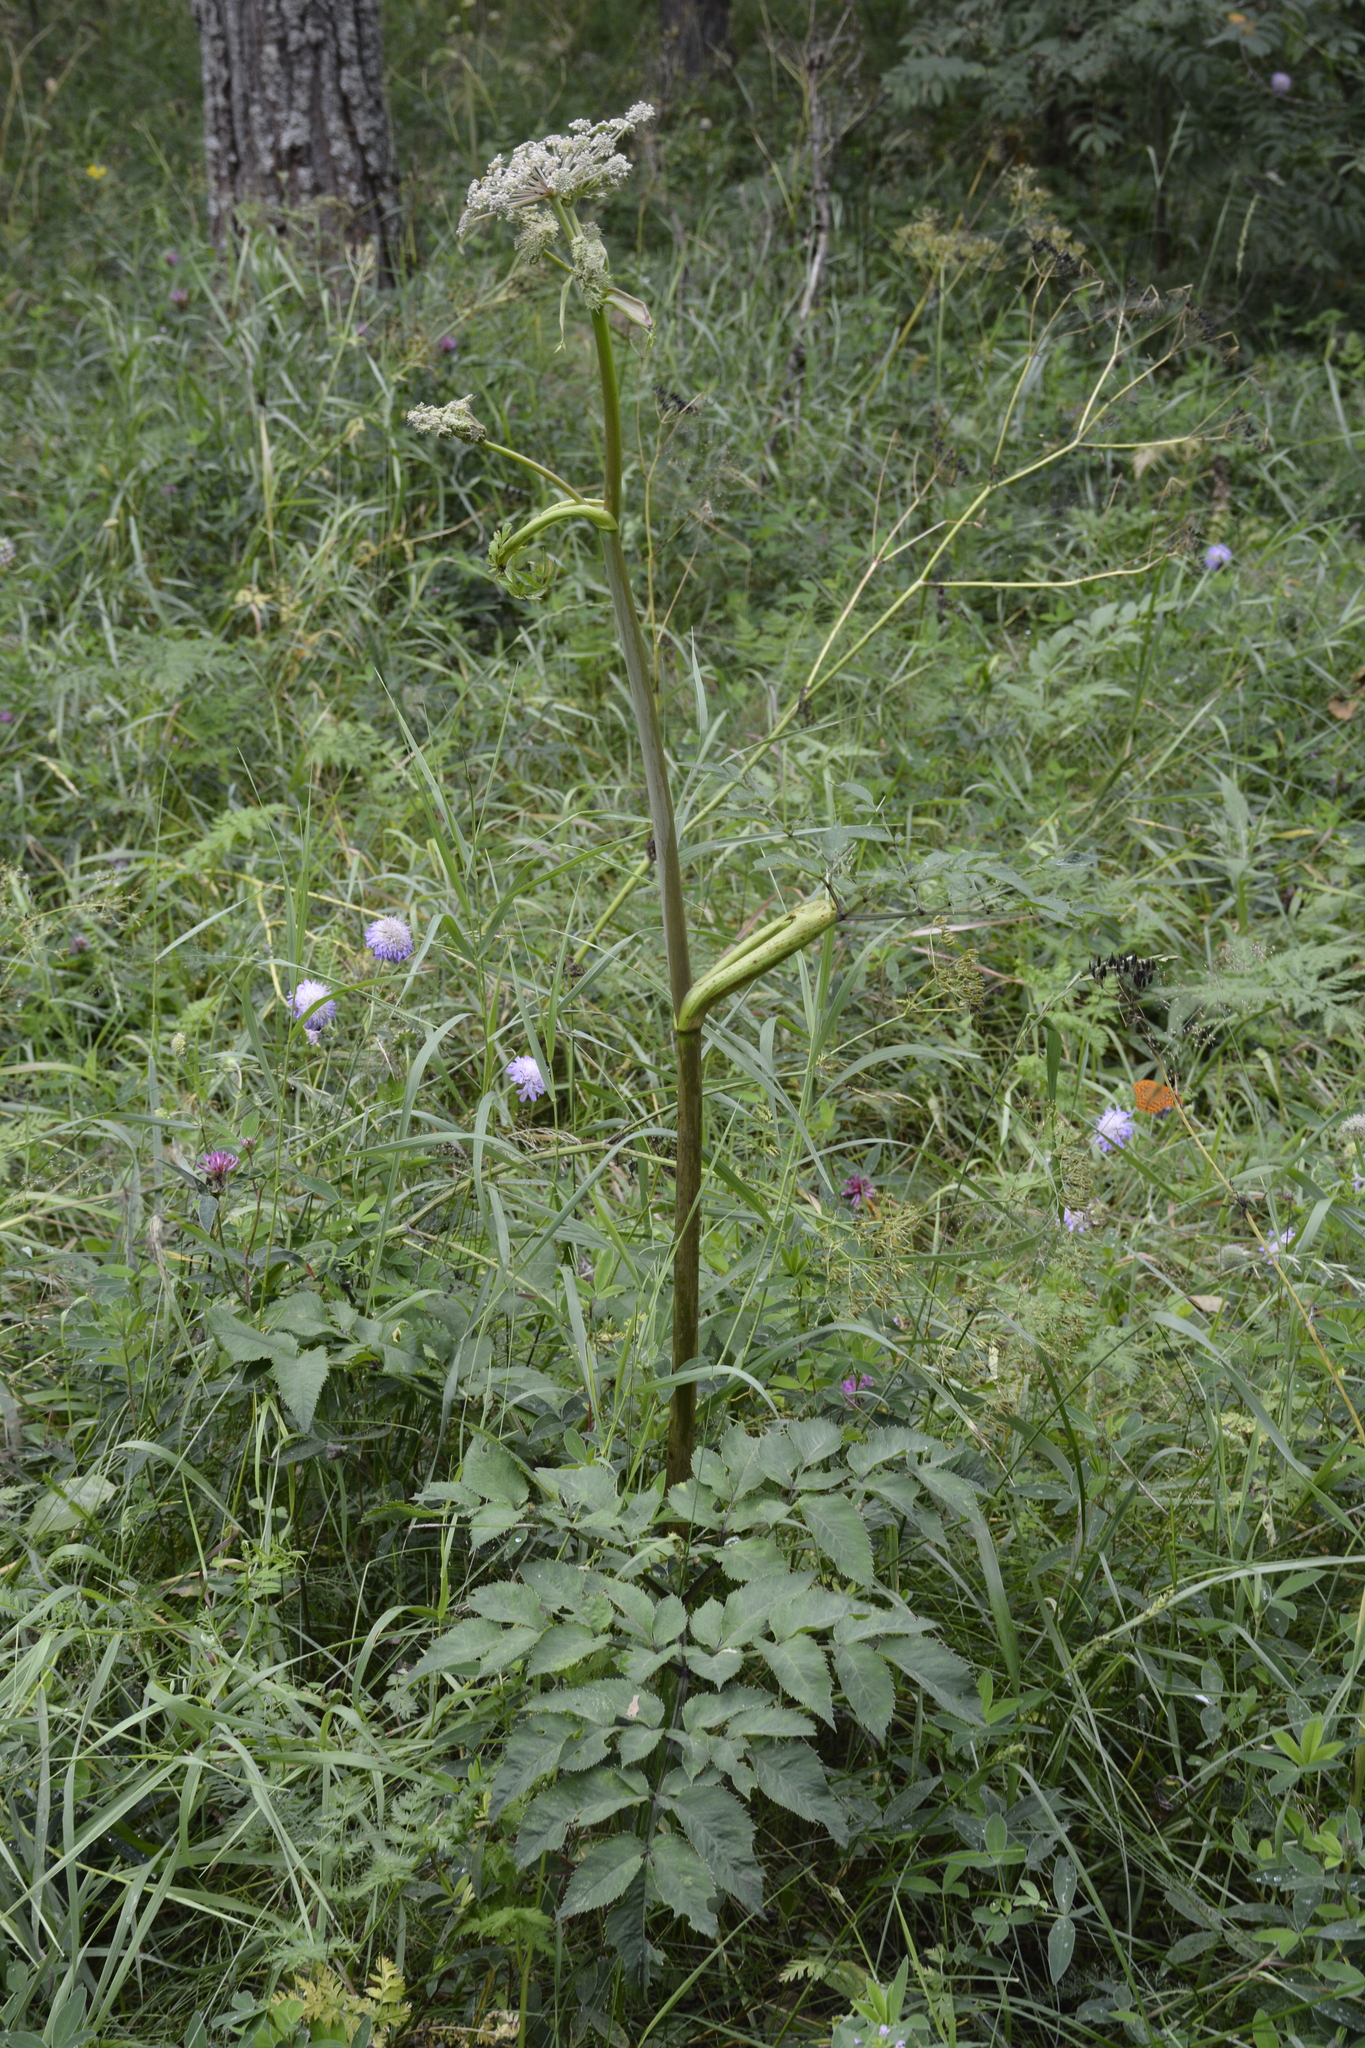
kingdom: Plantae
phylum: Tracheophyta
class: Magnoliopsida
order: Apiales
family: Apiaceae
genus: Angelica
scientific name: Angelica sylvestris
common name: Wild angelica
